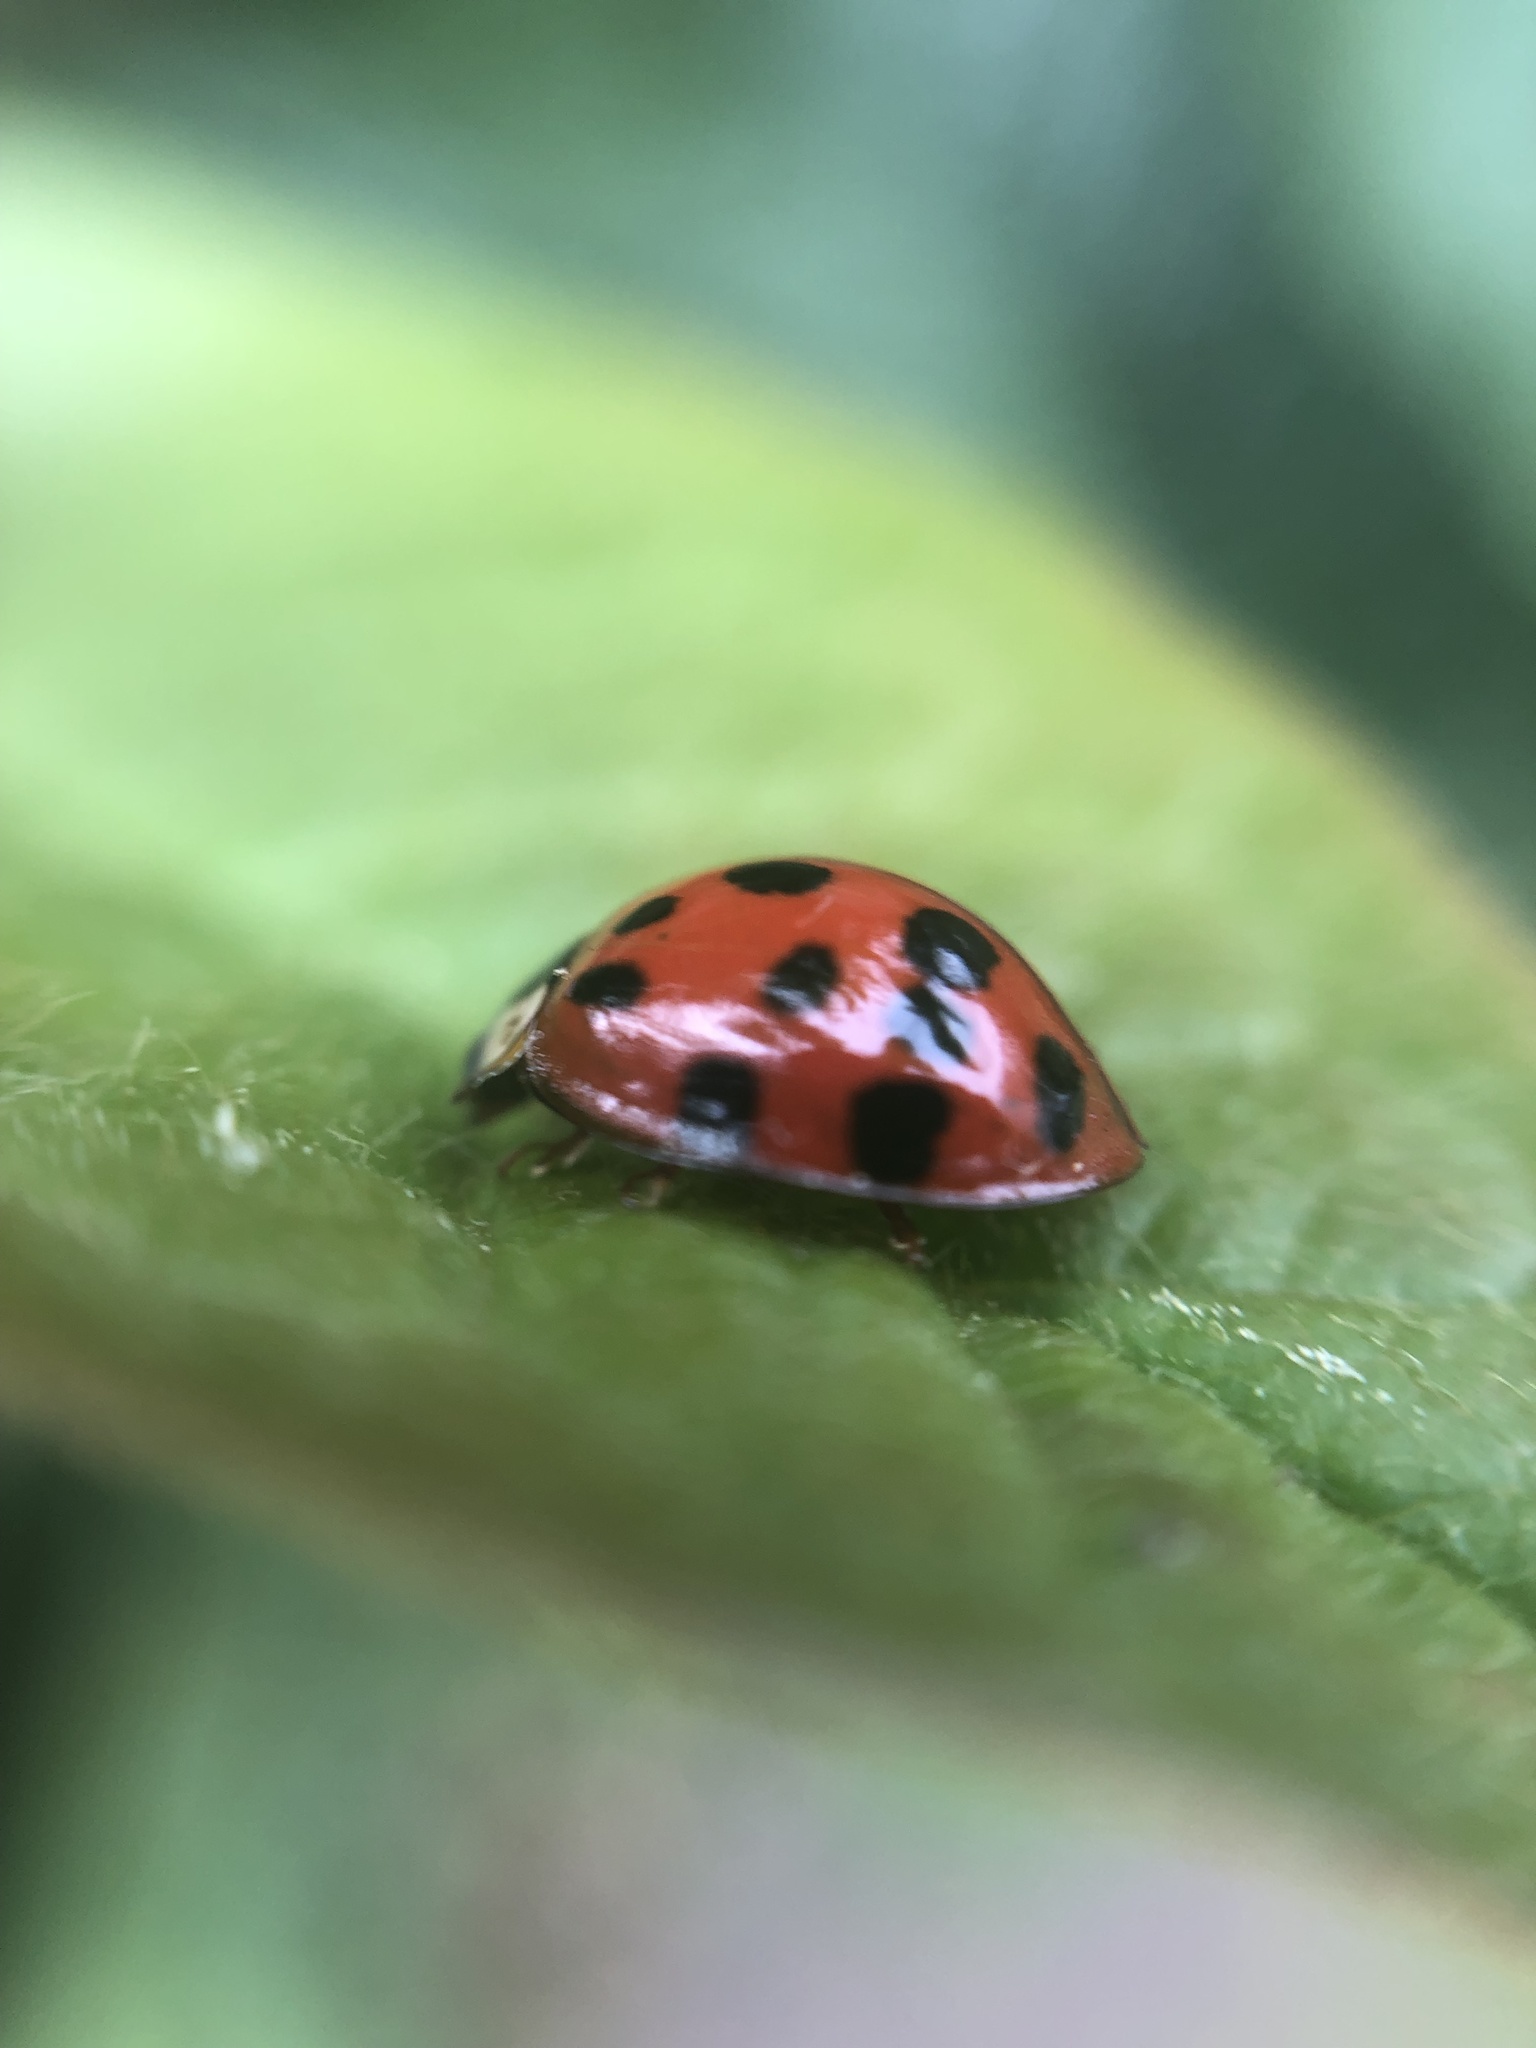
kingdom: Animalia
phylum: Arthropoda
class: Insecta
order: Coleoptera
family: Coccinellidae
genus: Harmonia
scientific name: Harmonia axyridis
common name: Harlequin ladybird
